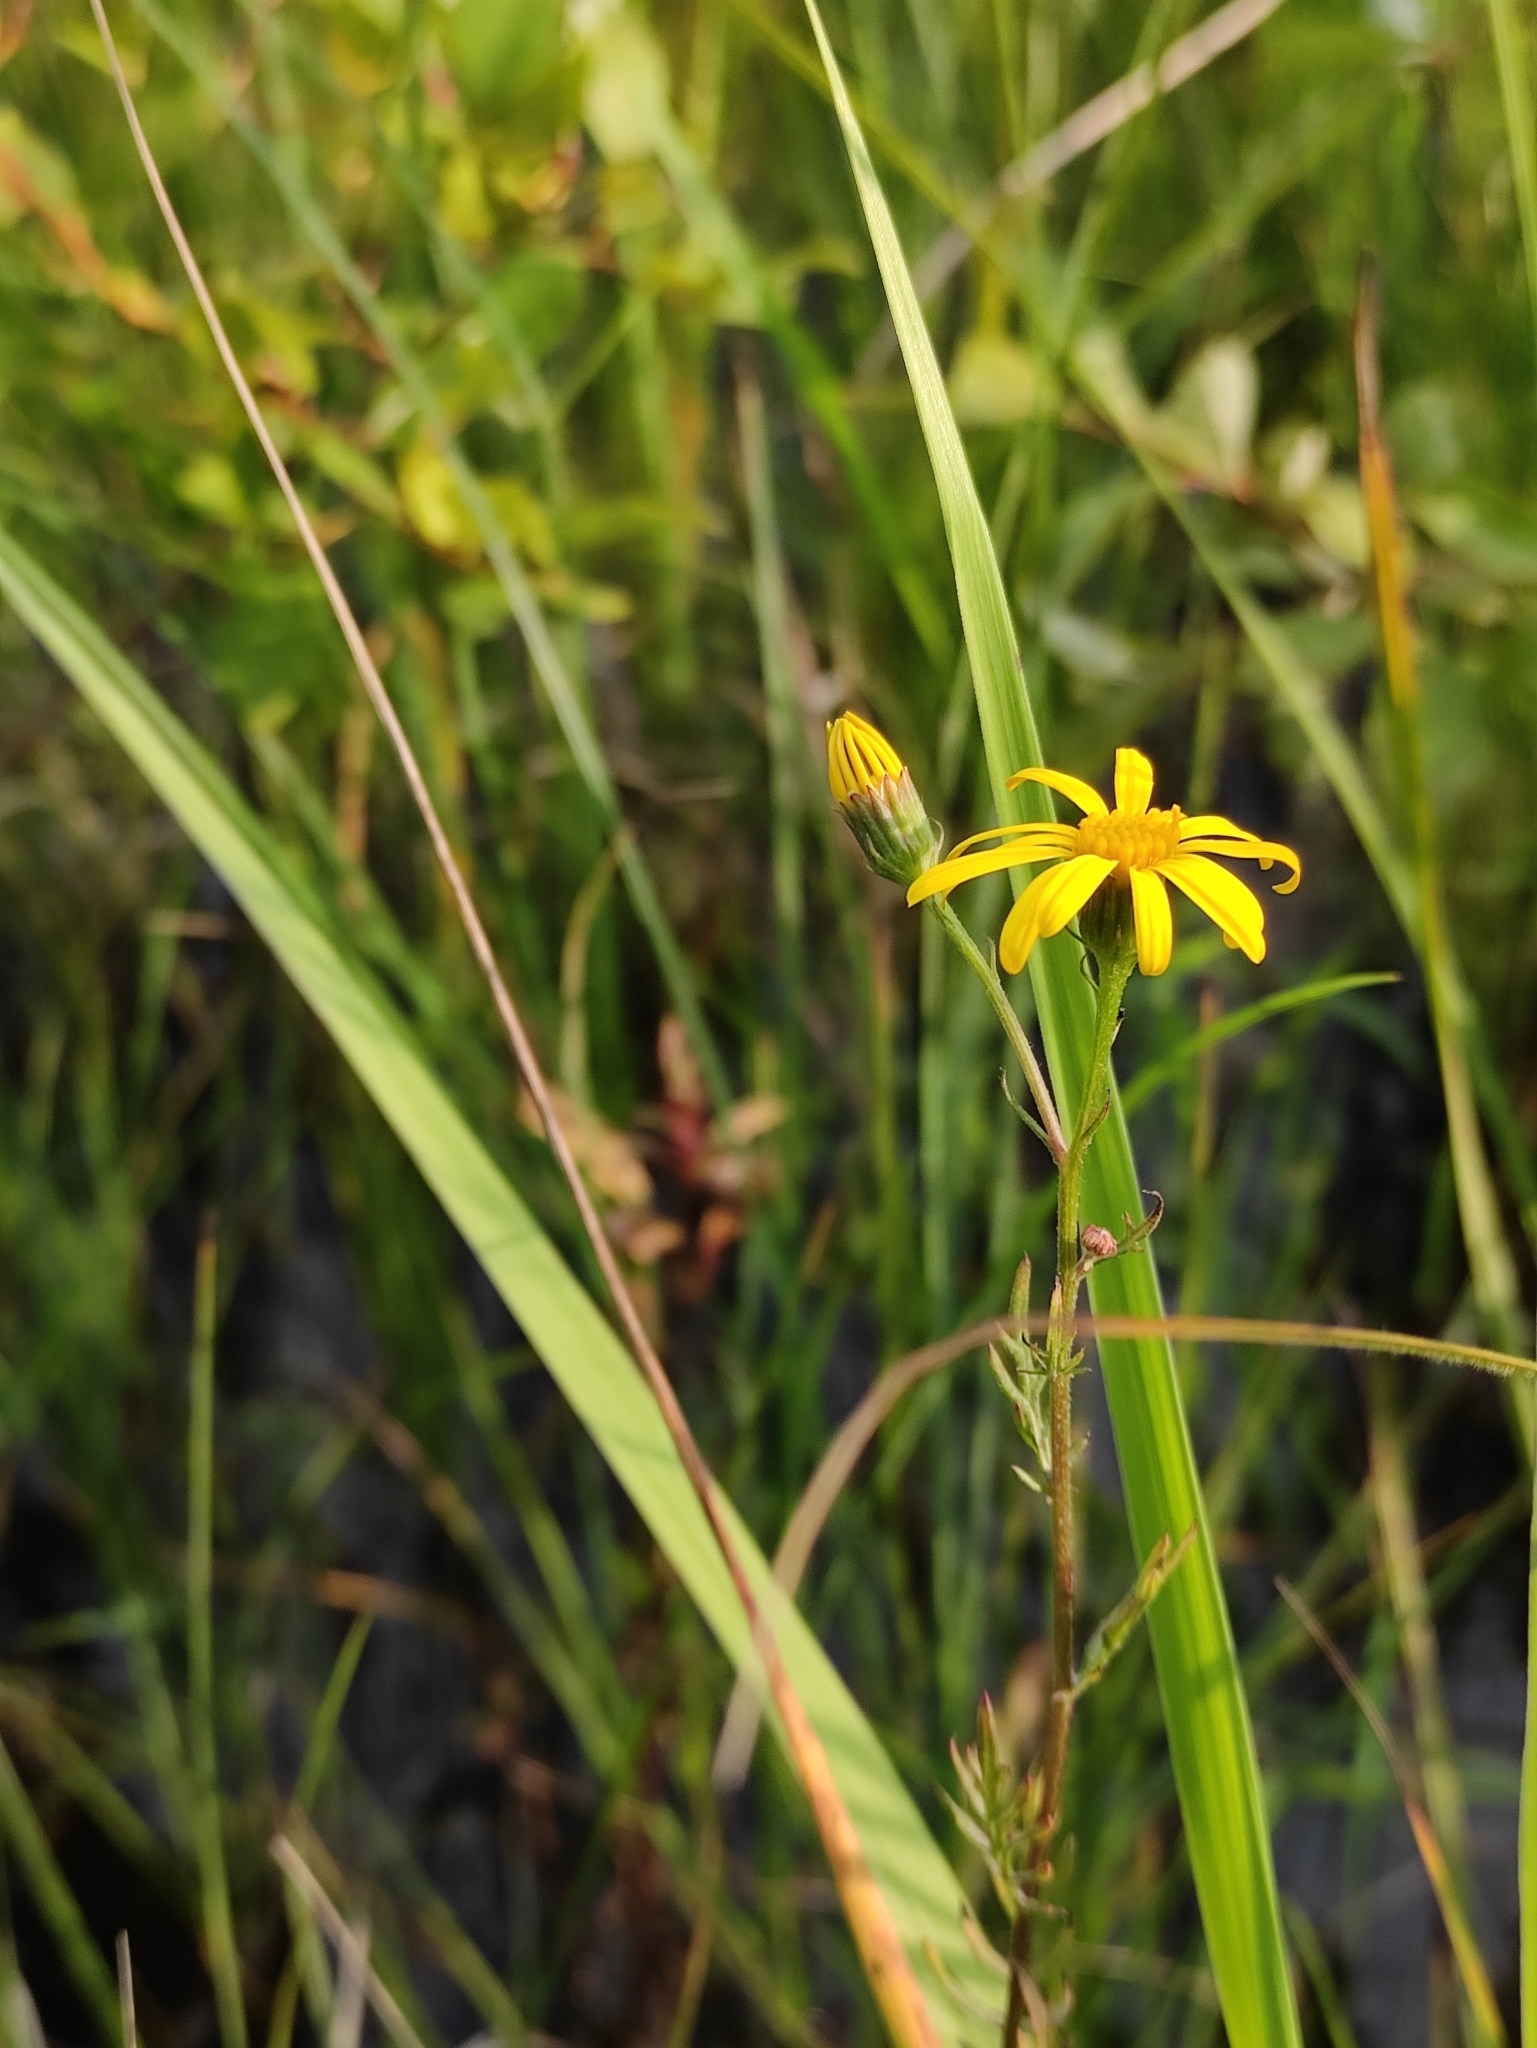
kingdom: Plantae
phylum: Tracheophyta
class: Magnoliopsida
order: Asterales
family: Asteraceae
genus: Jacobaea
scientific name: Jacobaea erucifolia
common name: Hoary ragwort
